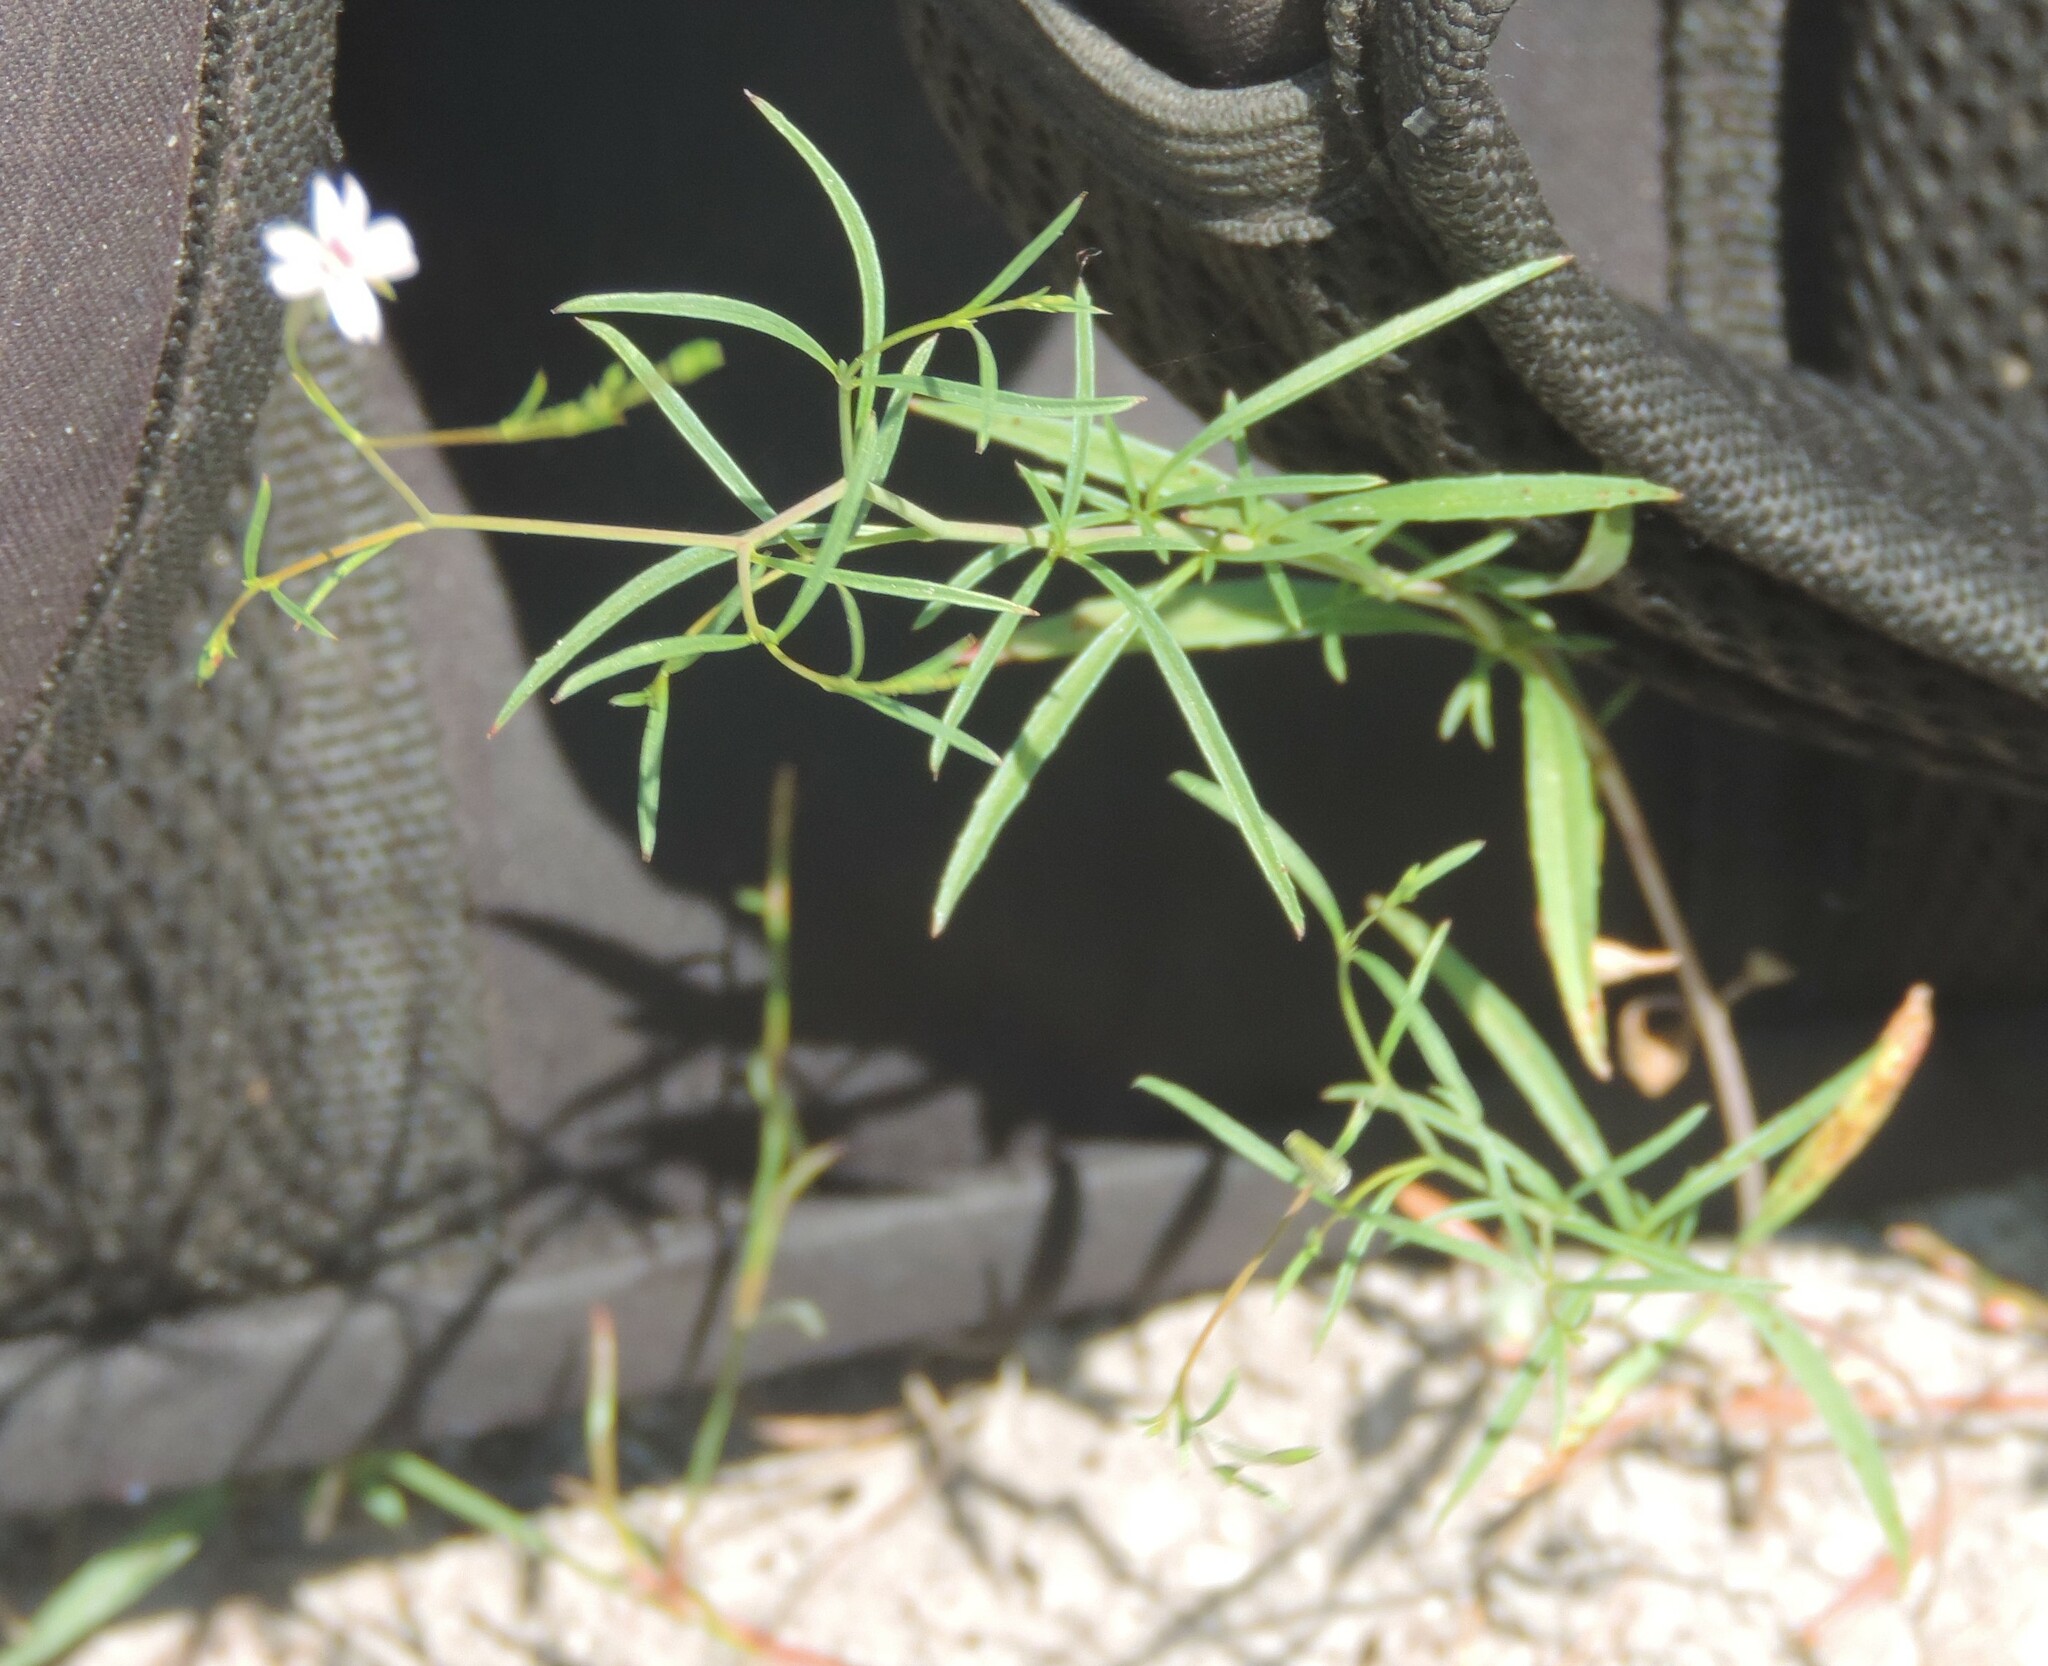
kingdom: Plantae
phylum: Tracheophyta
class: Magnoliopsida
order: Myrtales
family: Onagraceae
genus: Epilobium
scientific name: Epilobium brachycarpum
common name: Annual willowherb
